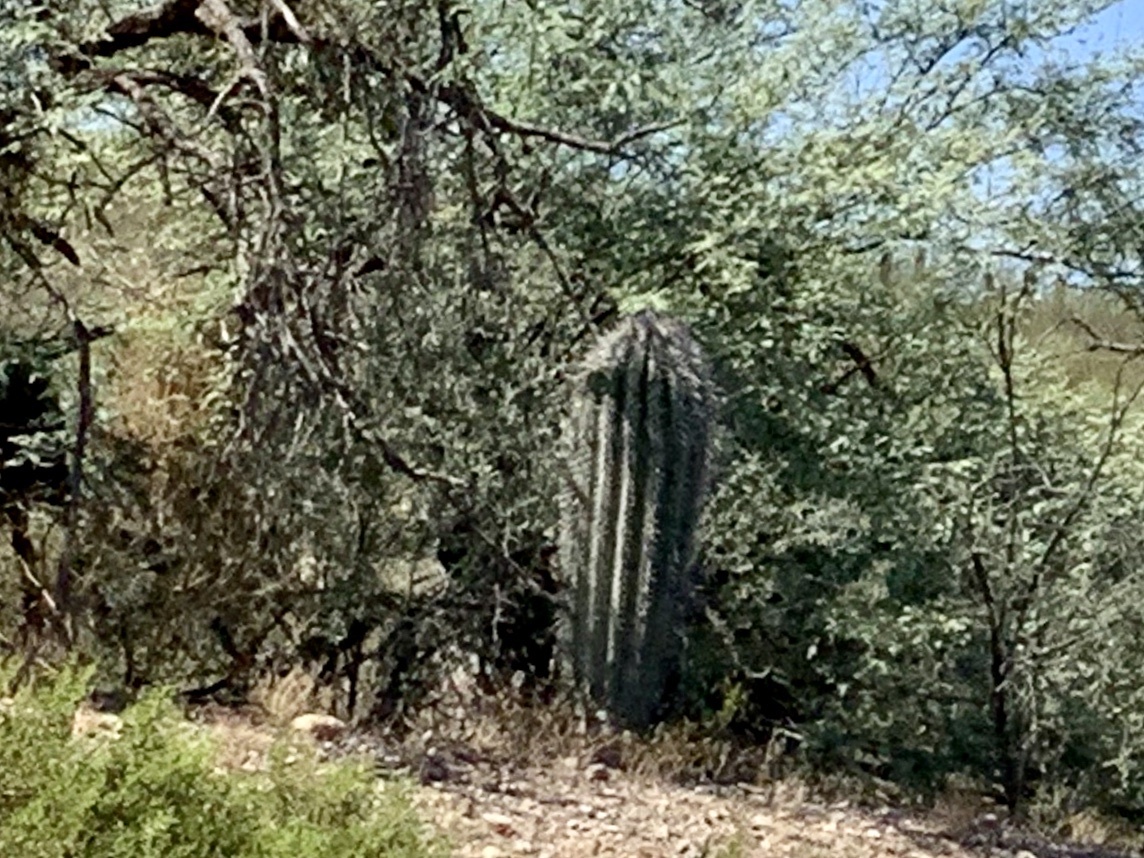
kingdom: Plantae
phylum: Tracheophyta
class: Magnoliopsida
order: Caryophyllales
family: Cactaceae
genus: Carnegiea
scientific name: Carnegiea gigantea
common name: Saguaro
